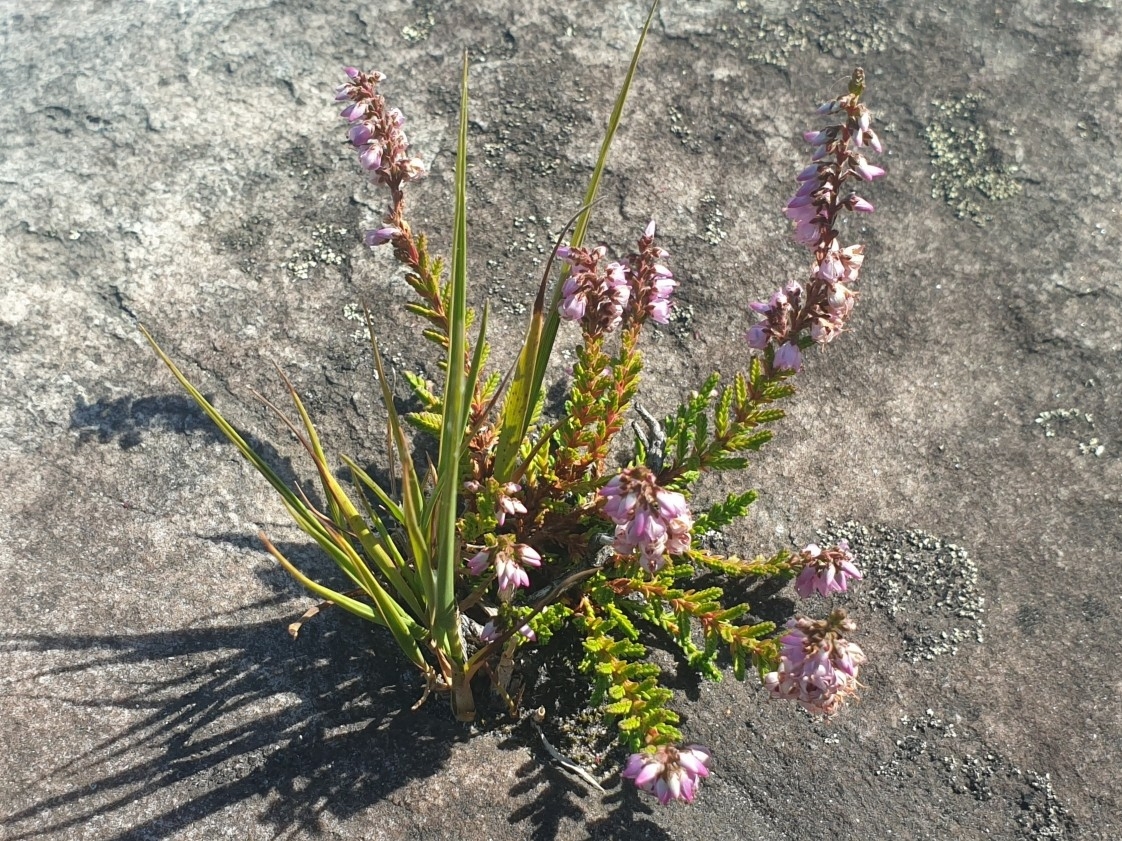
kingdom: Plantae
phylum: Tracheophyta
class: Magnoliopsida
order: Ericales
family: Ericaceae
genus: Calluna
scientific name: Calluna vulgaris
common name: Heather
